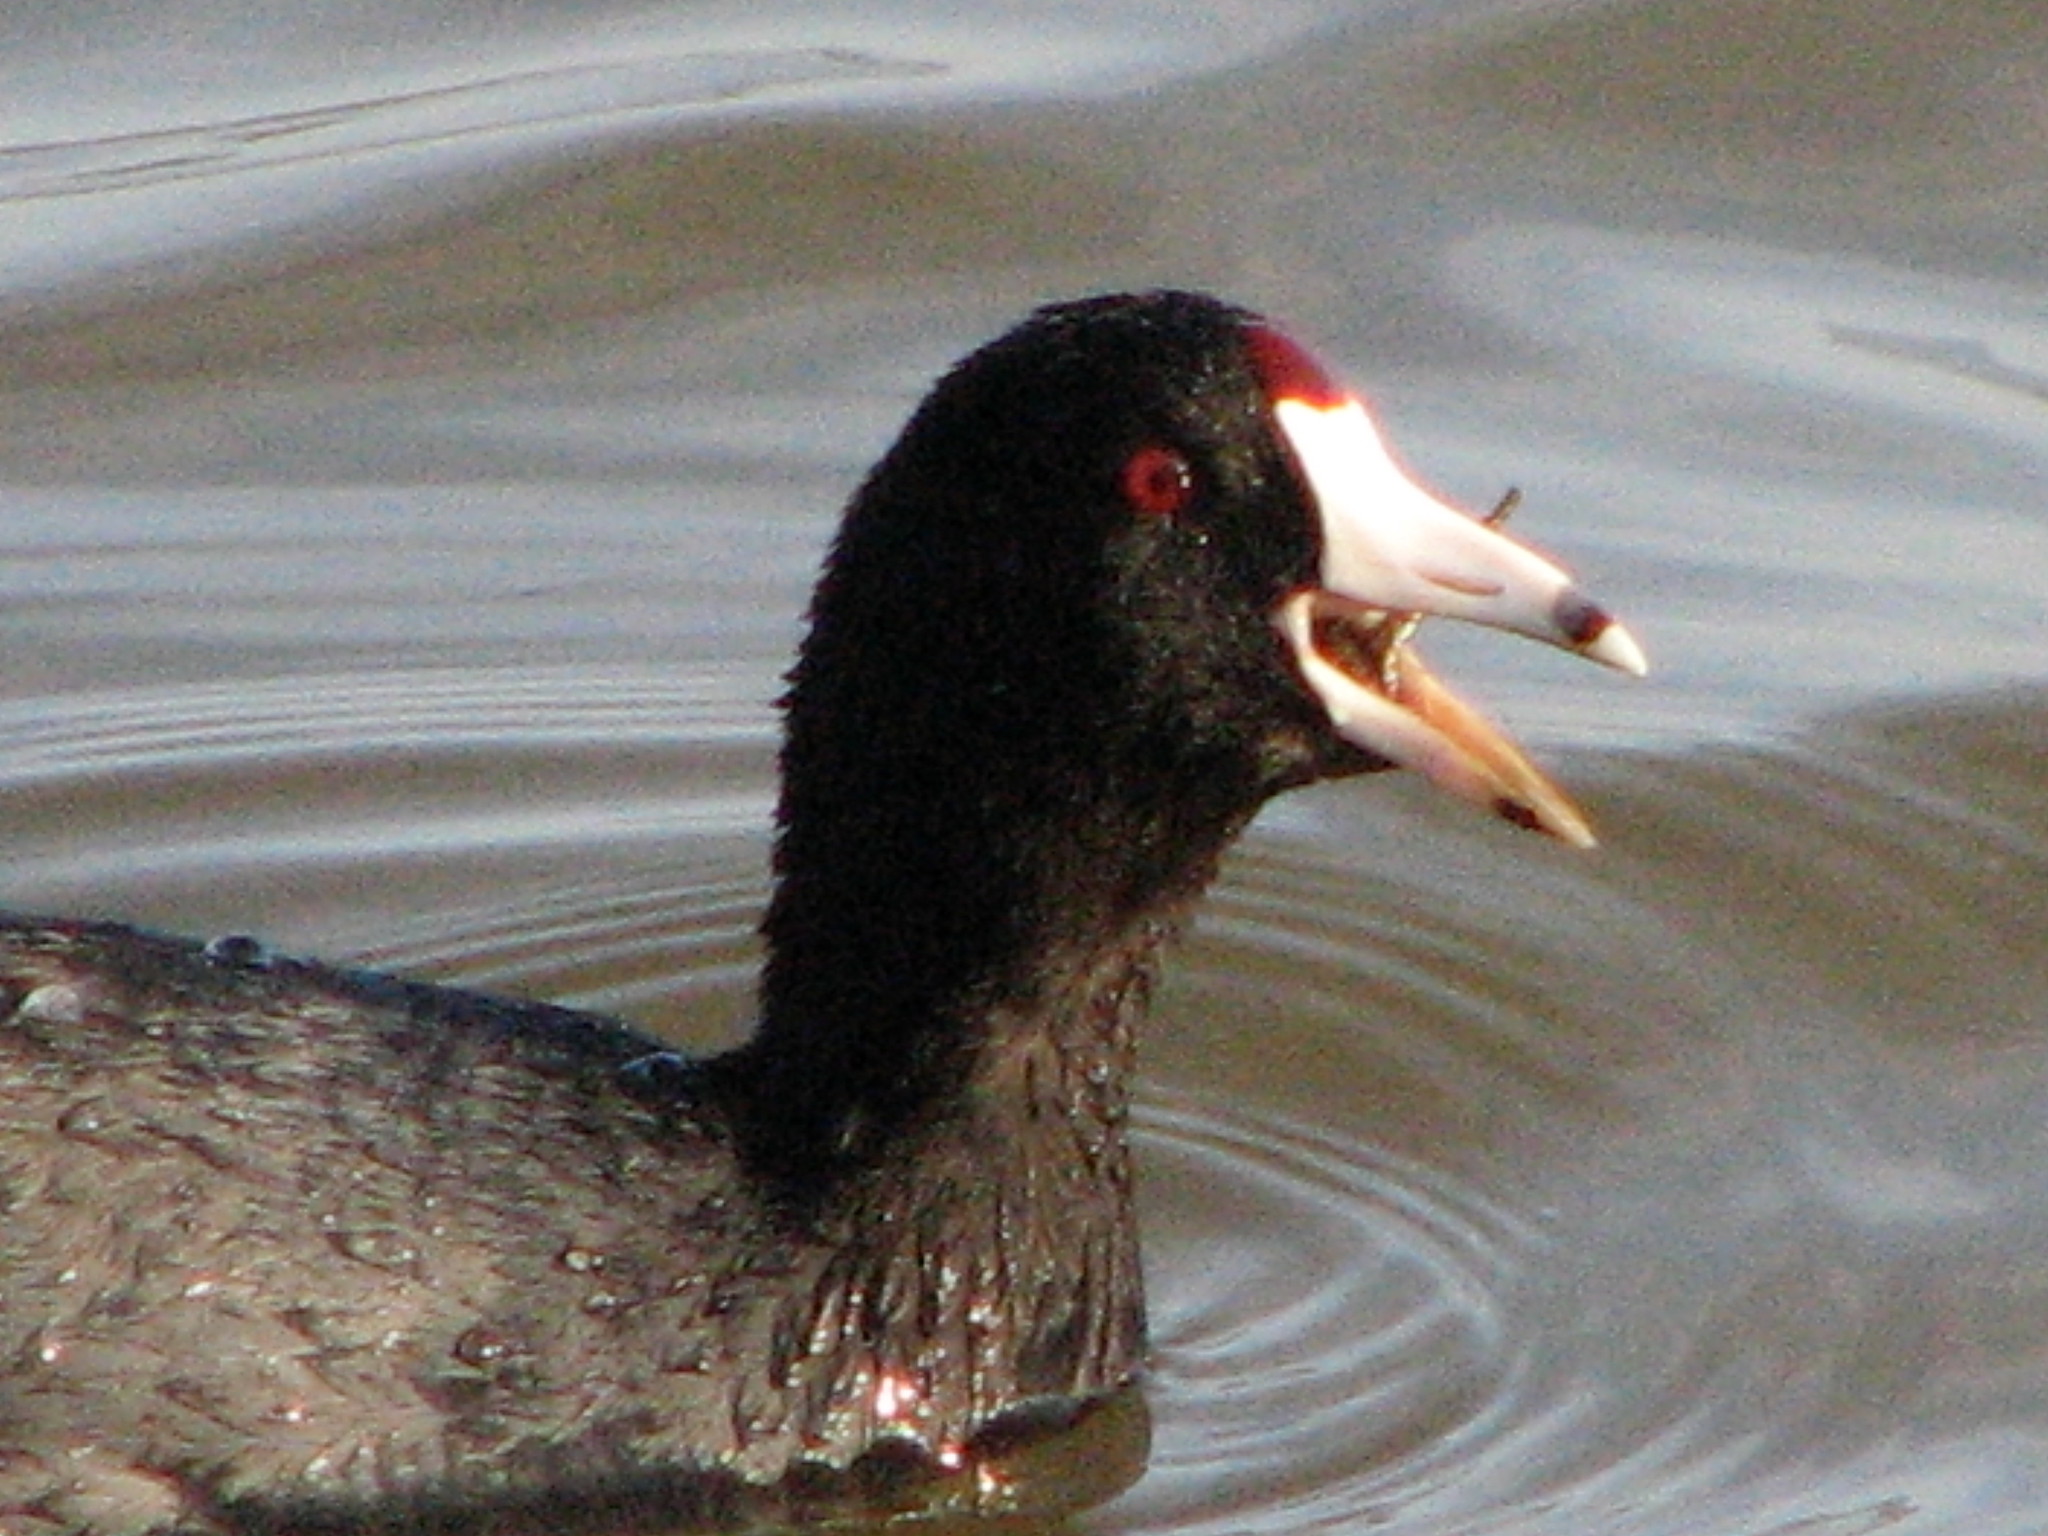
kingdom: Animalia
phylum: Chordata
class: Aves
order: Gruiformes
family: Rallidae
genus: Fulica
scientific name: Fulica americana
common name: American coot
